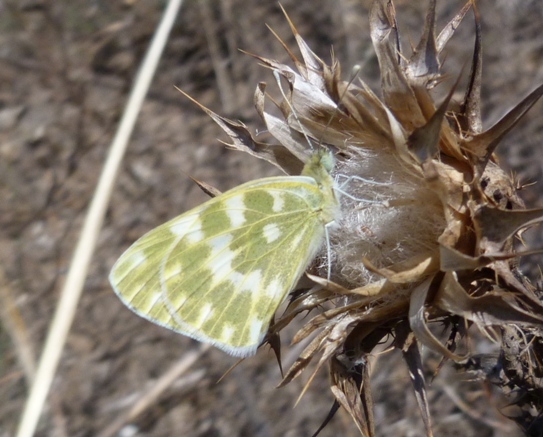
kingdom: Animalia
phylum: Arthropoda
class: Insecta
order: Lepidoptera
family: Pieridae
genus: Pontia
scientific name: Pontia daplidice
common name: Bath white
